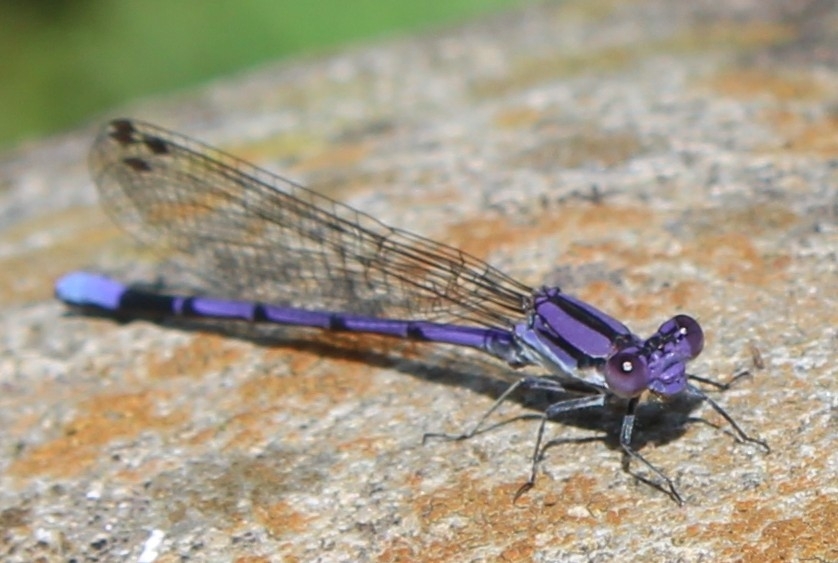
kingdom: Animalia
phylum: Arthropoda
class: Insecta
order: Odonata
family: Coenagrionidae
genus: Argia
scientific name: Argia fumipennis
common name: Variable dancer
